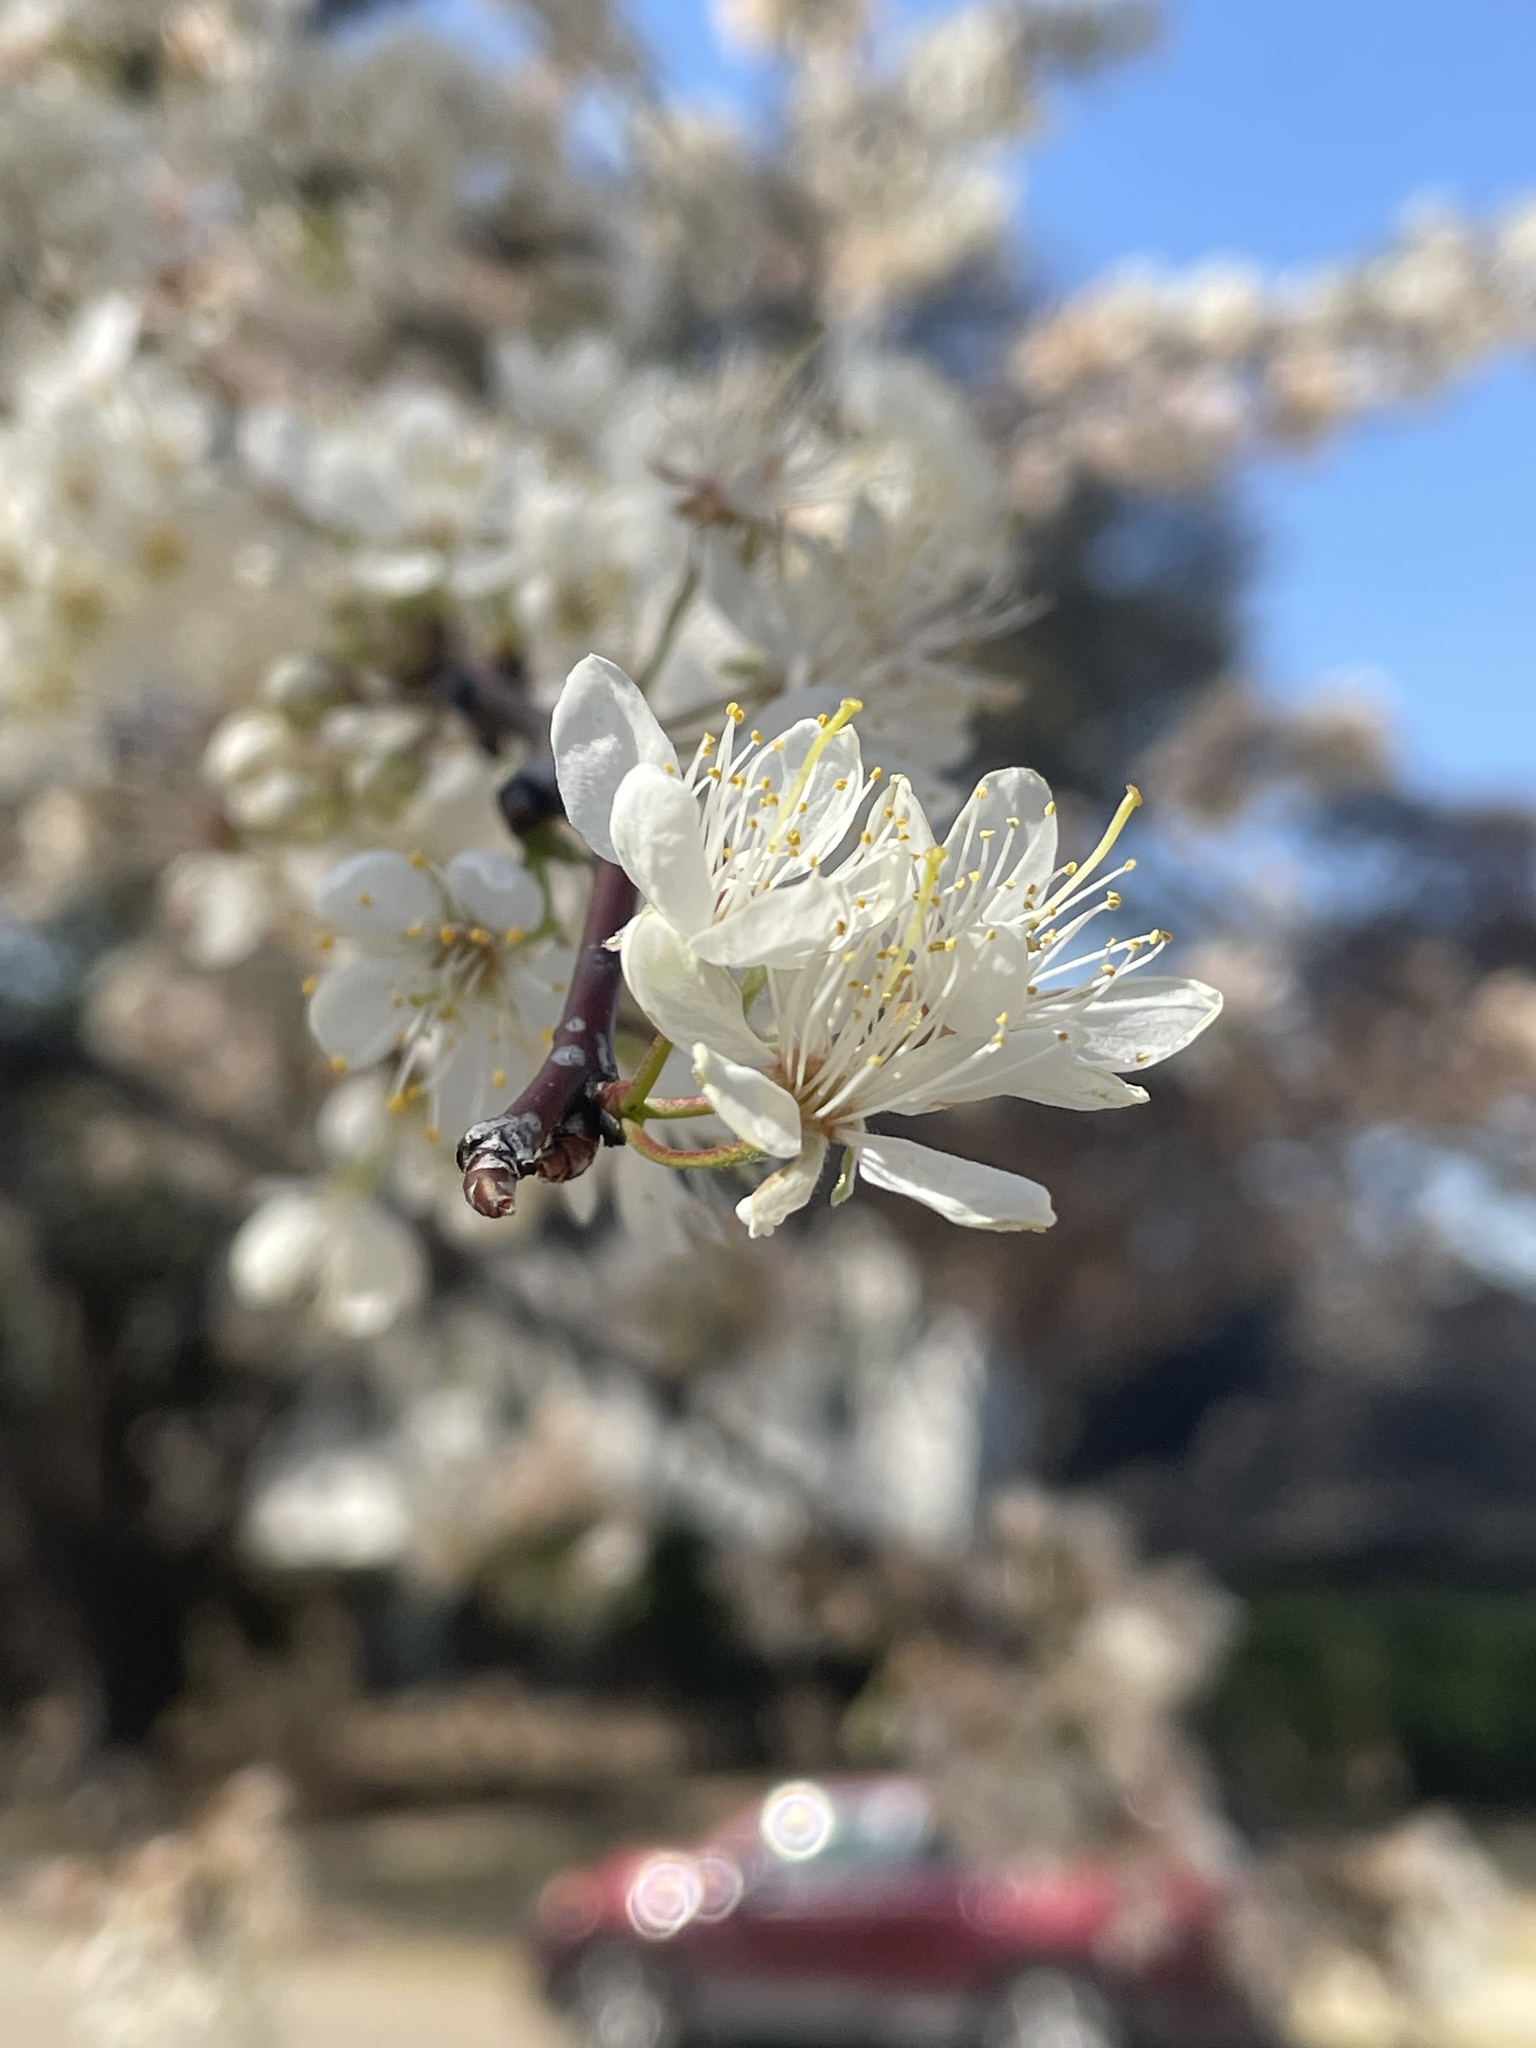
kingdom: Plantae
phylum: Tracheophyta
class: Magnoliopsida
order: Rosales
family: Rosaceae
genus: Prunus
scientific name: Prunus mexicana
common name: Mexican plum
